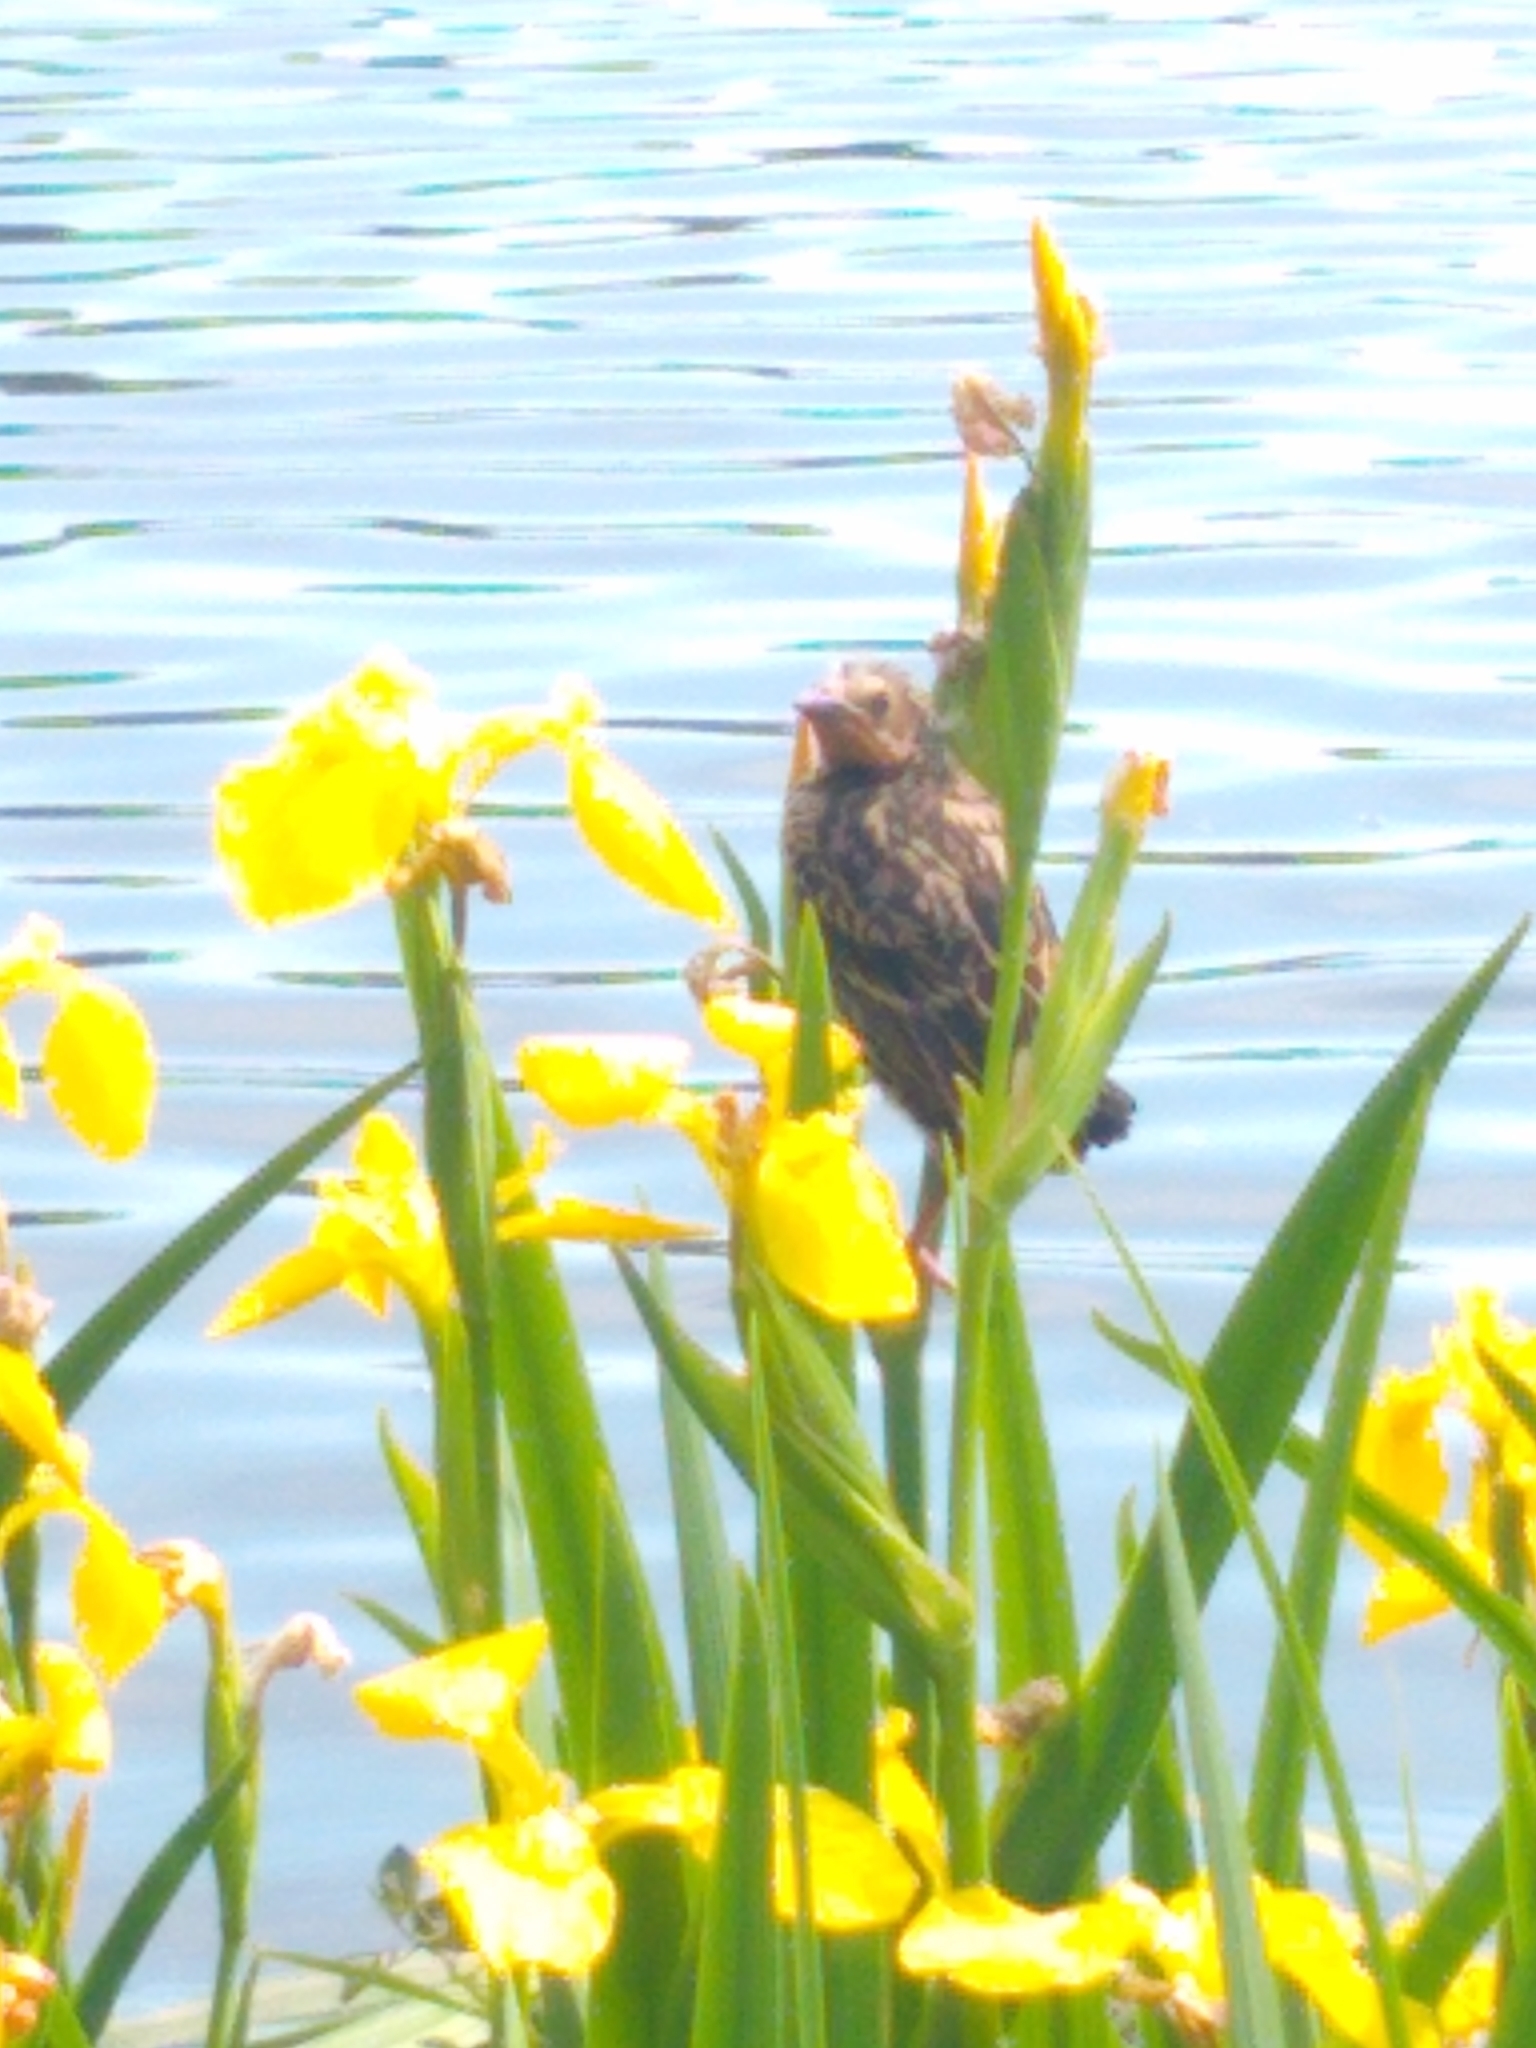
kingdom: Animalia
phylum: Chordata
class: Aves
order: Passeriformes
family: Icteridae
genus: Agelaius
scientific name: Agelaius phoeniceus
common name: Red-winged blackbird
